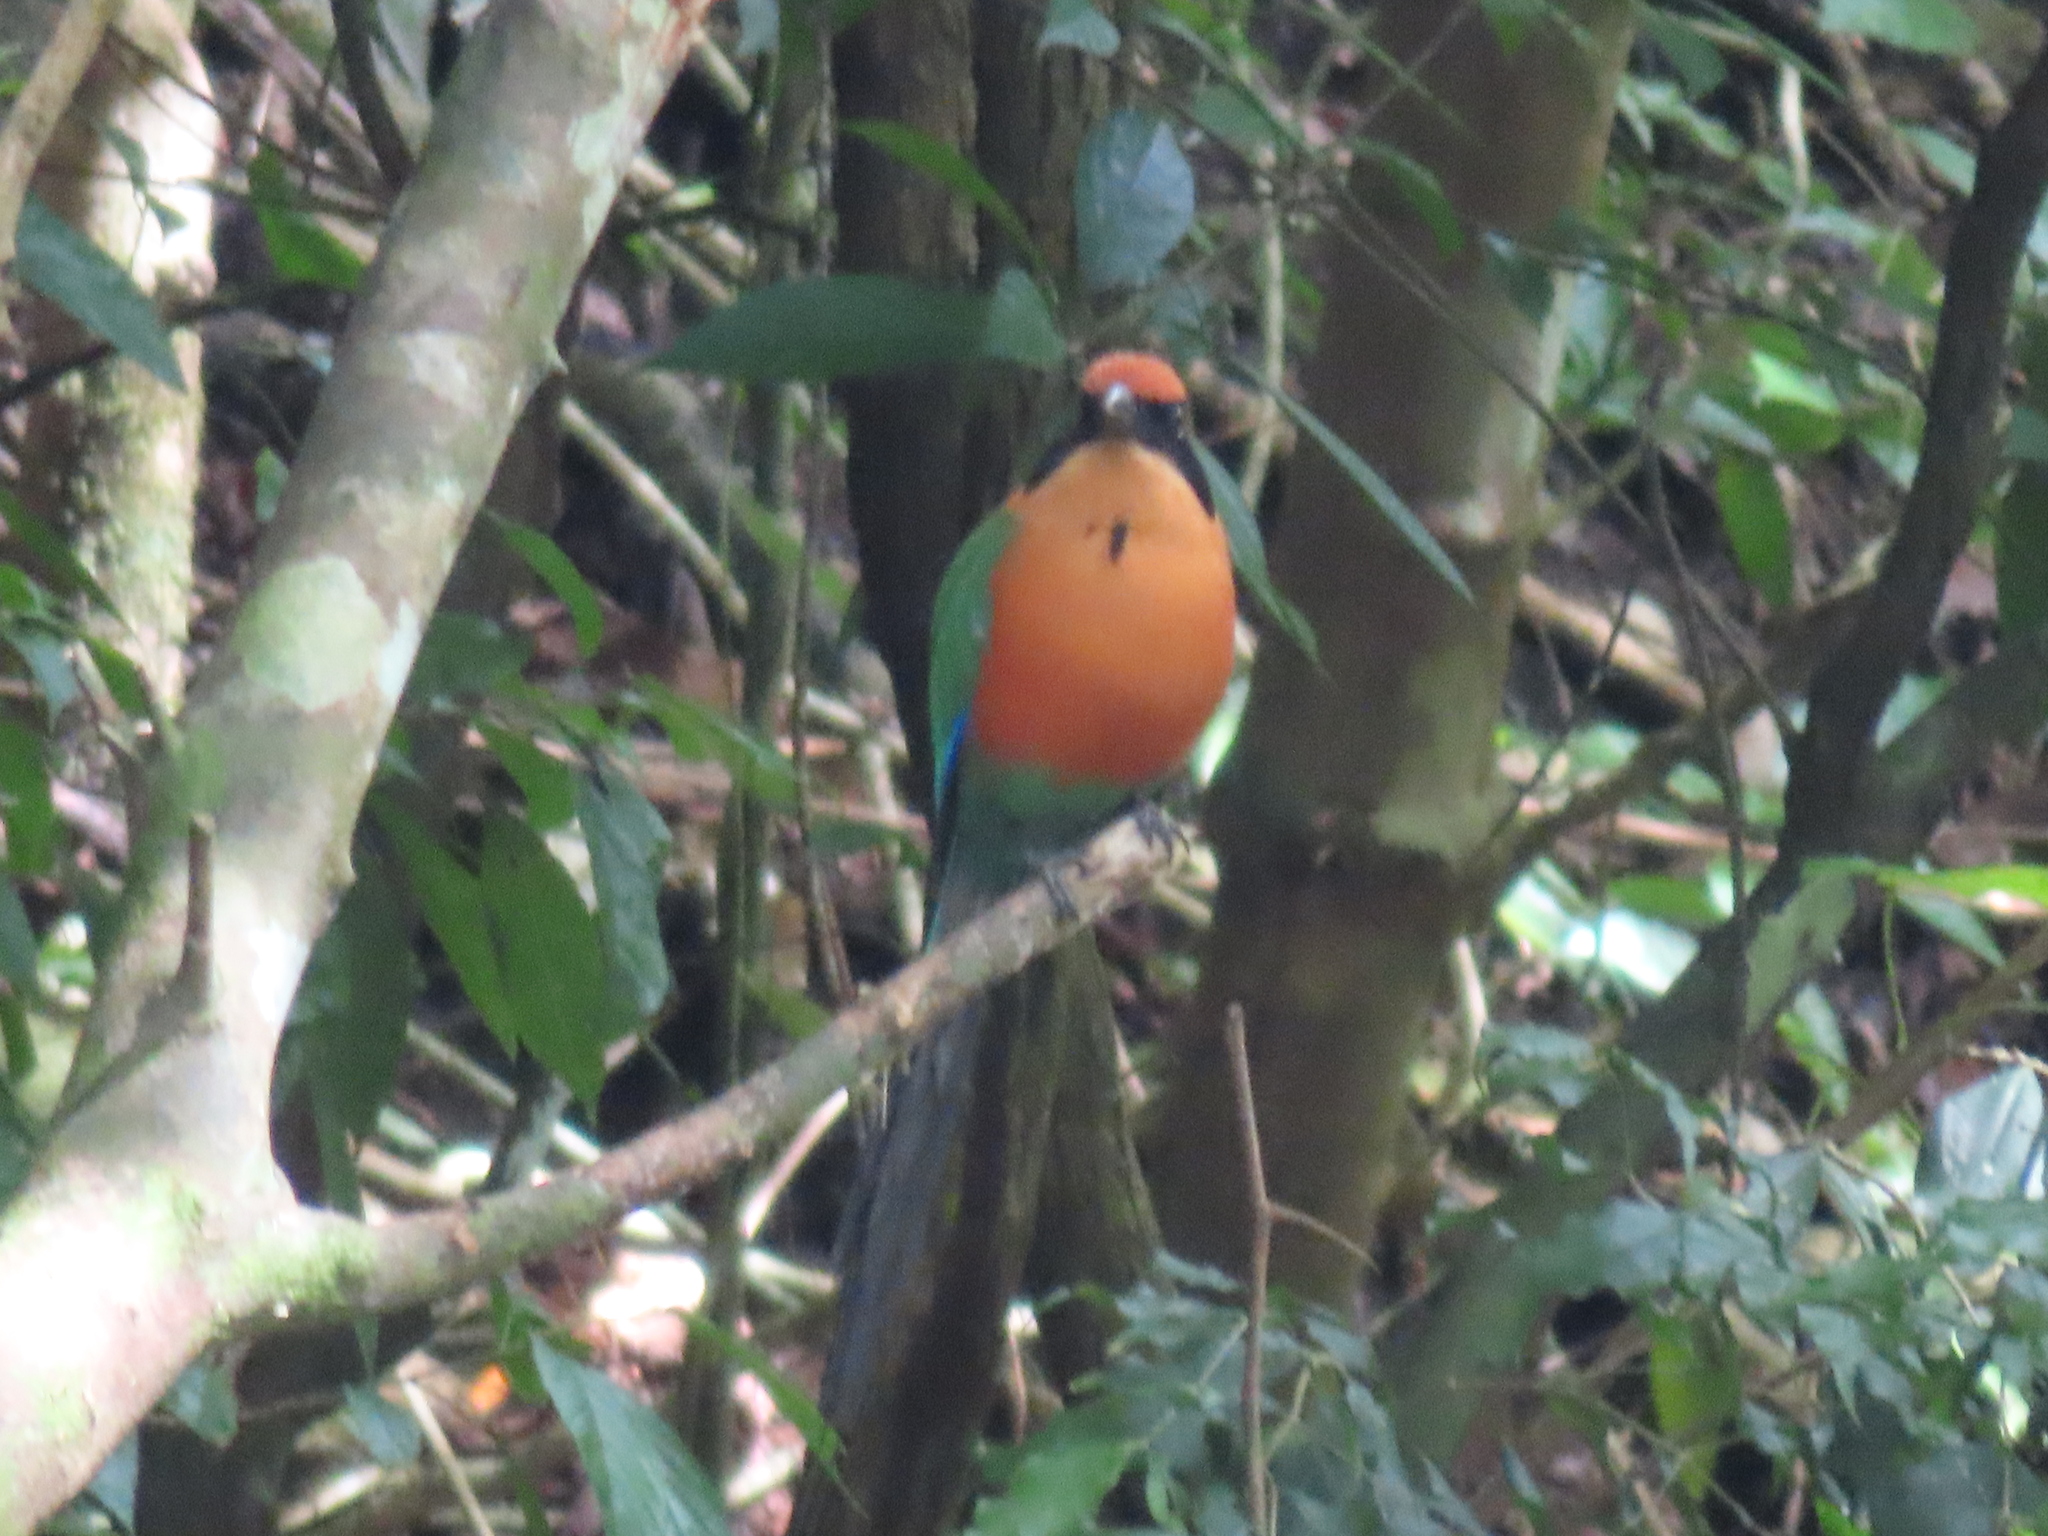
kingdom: Animalia
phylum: Chordata
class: Aves
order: Coraciiformes
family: Momotidae
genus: Baryphthengus
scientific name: Baryphthengus martii
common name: Rufous motmot
